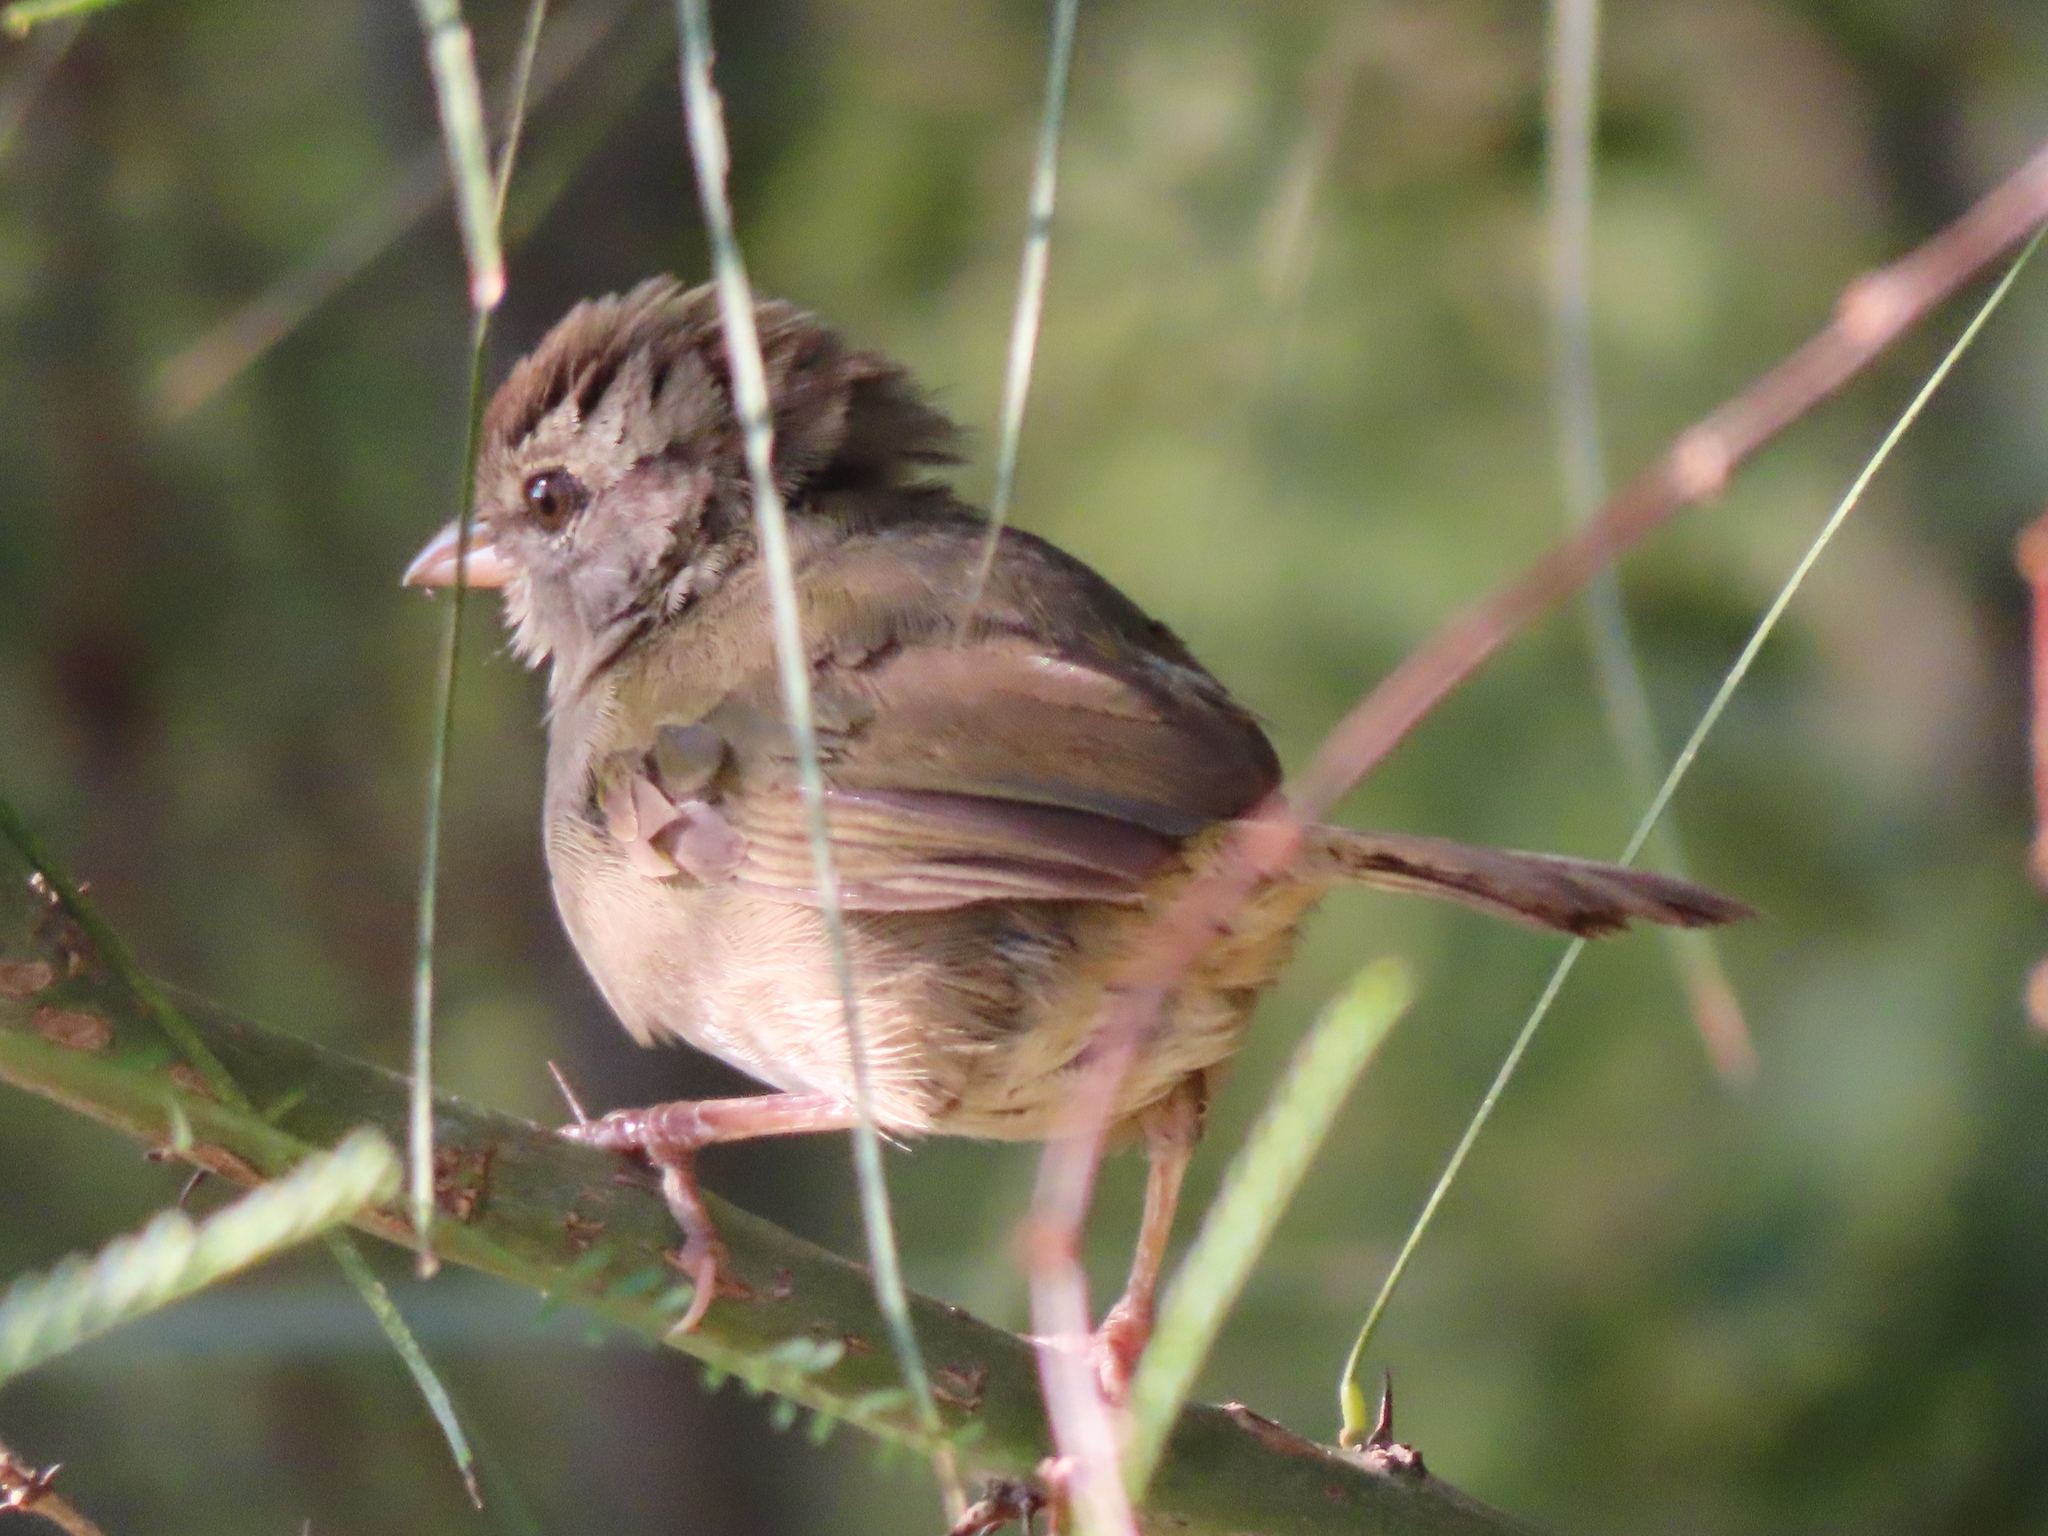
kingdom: Animalia
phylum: Chordata
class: Aves
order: Passeriformes
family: Passerellidae
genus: Arremonops
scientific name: Arremonops rufivirgatus
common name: Olive sparrow
